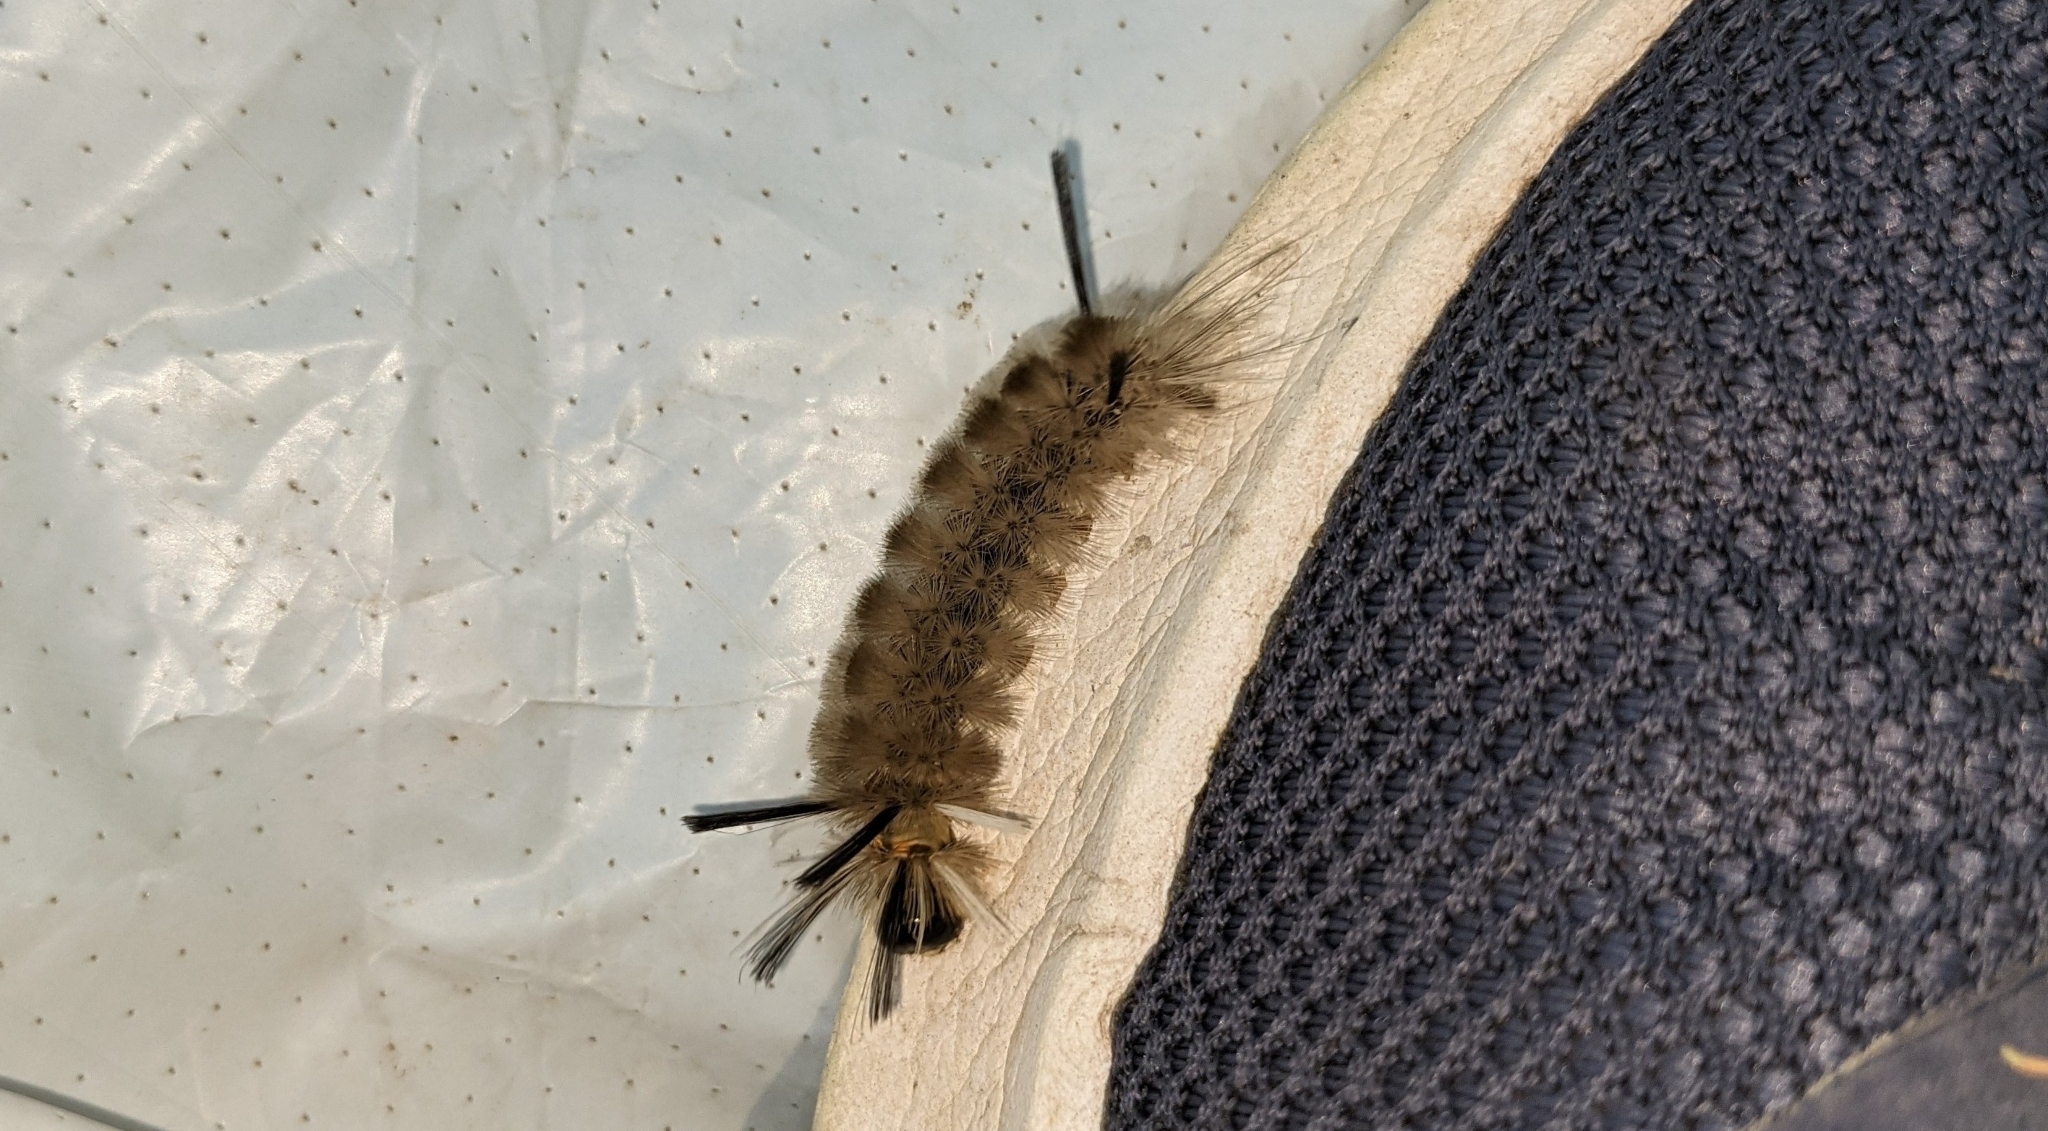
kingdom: Animalia
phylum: Arthropoda
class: Insecta
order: Lepidoptera
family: Erebidae
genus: Halysidota
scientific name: Halysidota tessellaris
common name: Banded tussock moth
